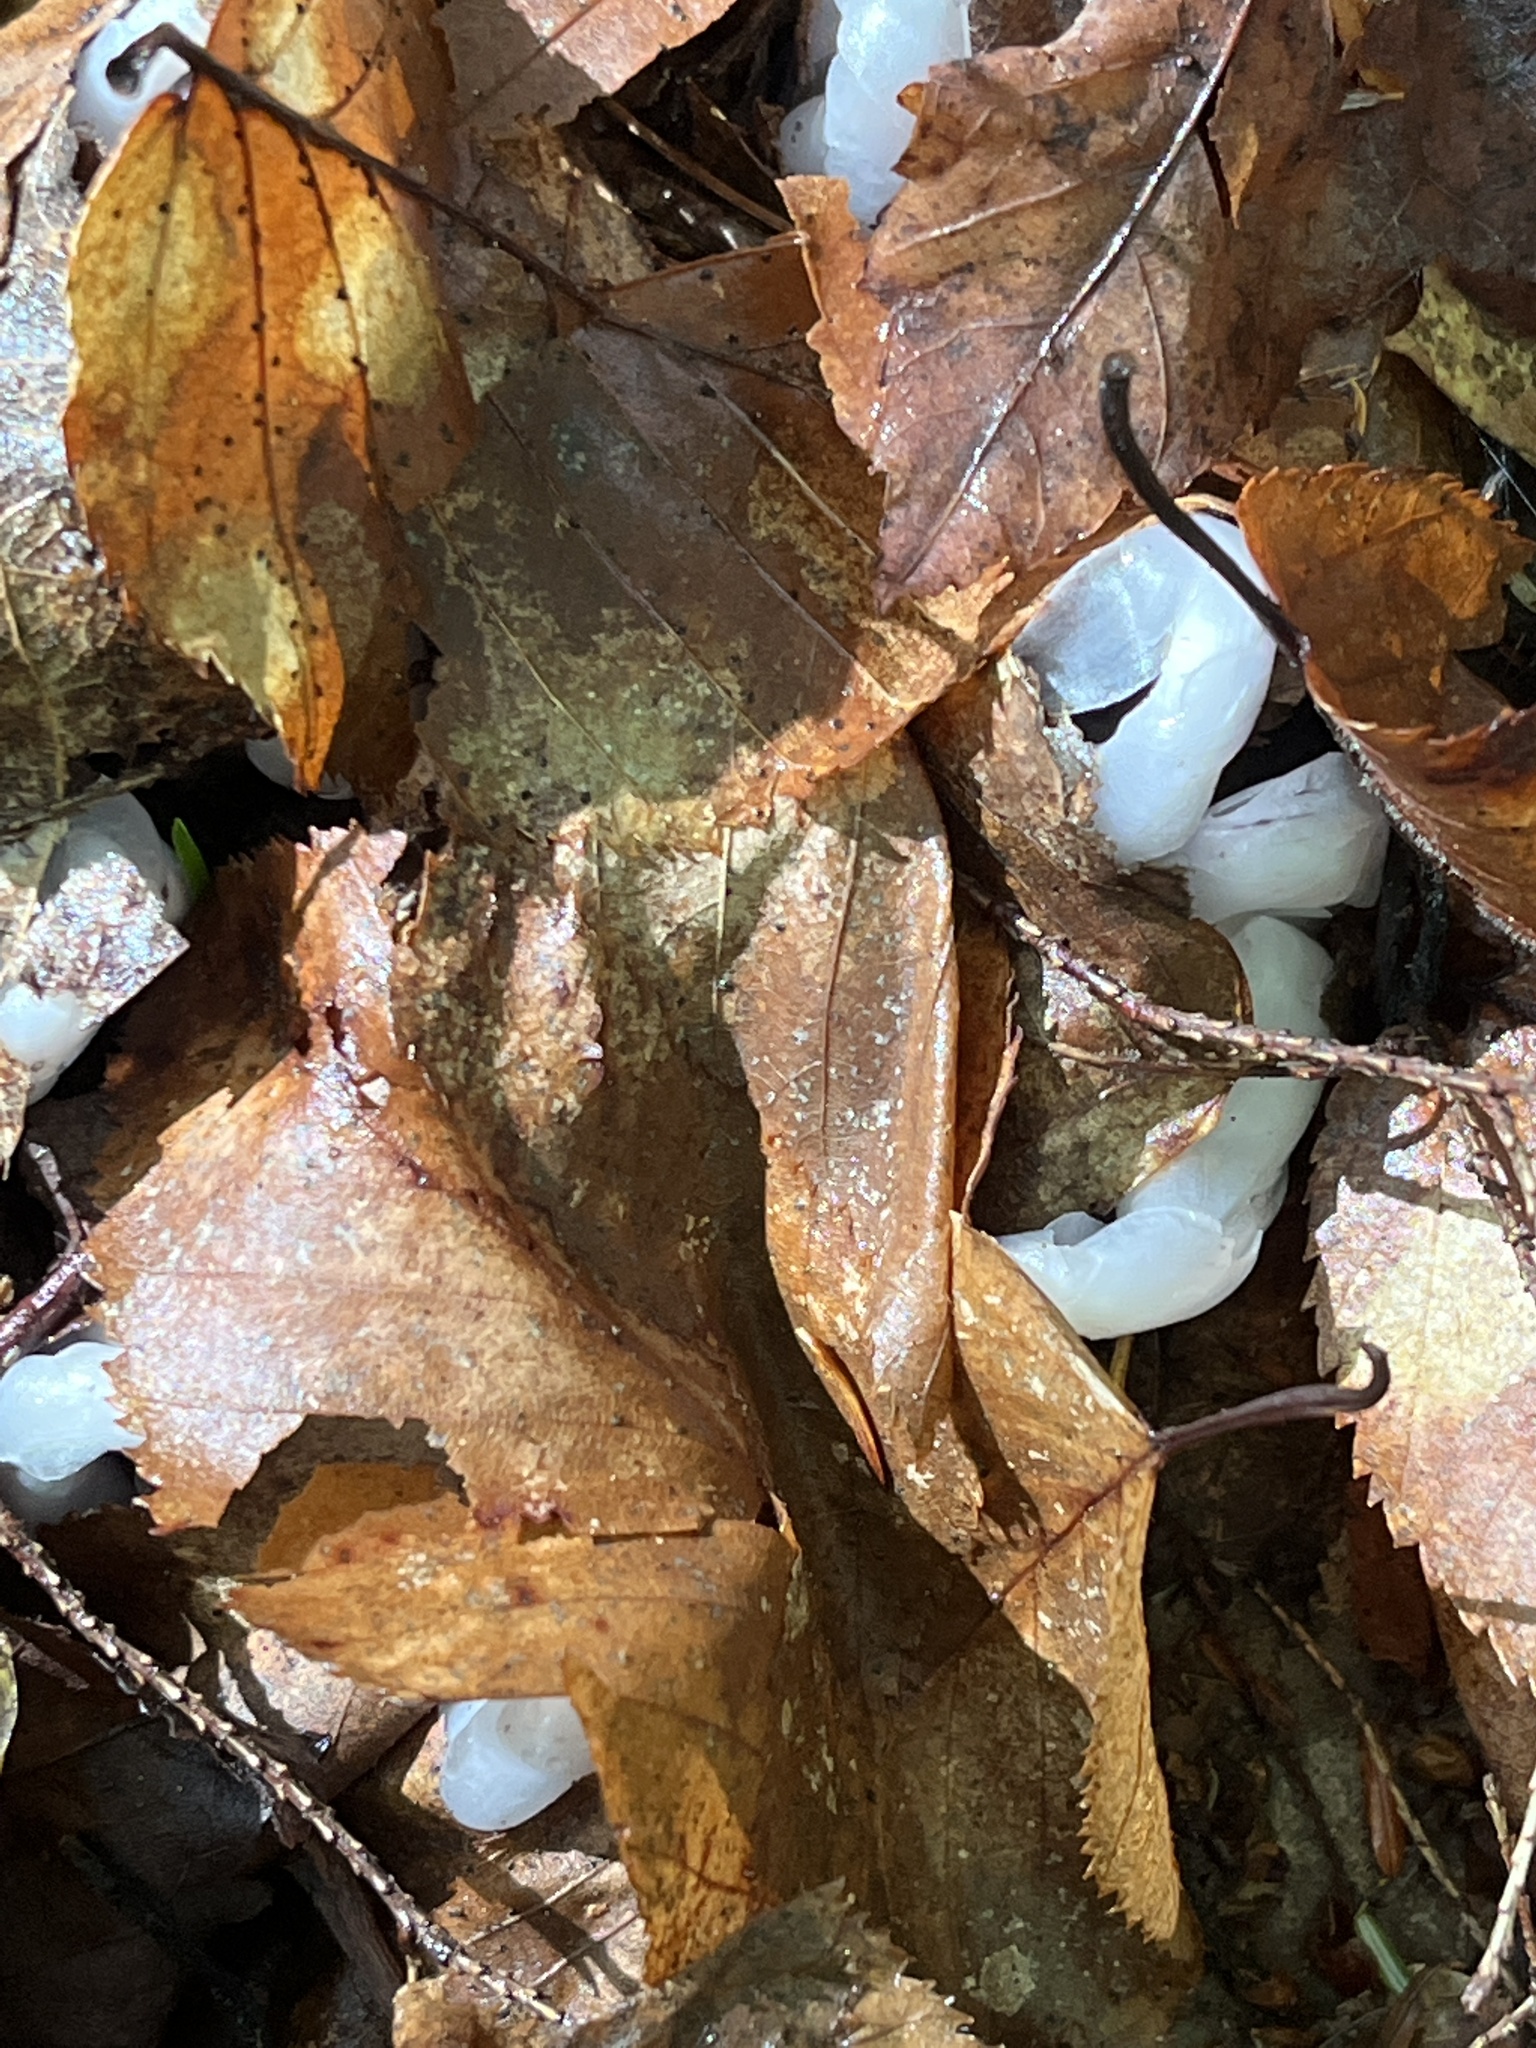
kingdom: Plantae
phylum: Tracheophyta
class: Magnoliopsida
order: Ericales
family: Ericaceae
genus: Monotropa
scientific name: Monotropa uniflora
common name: Convulsion root
